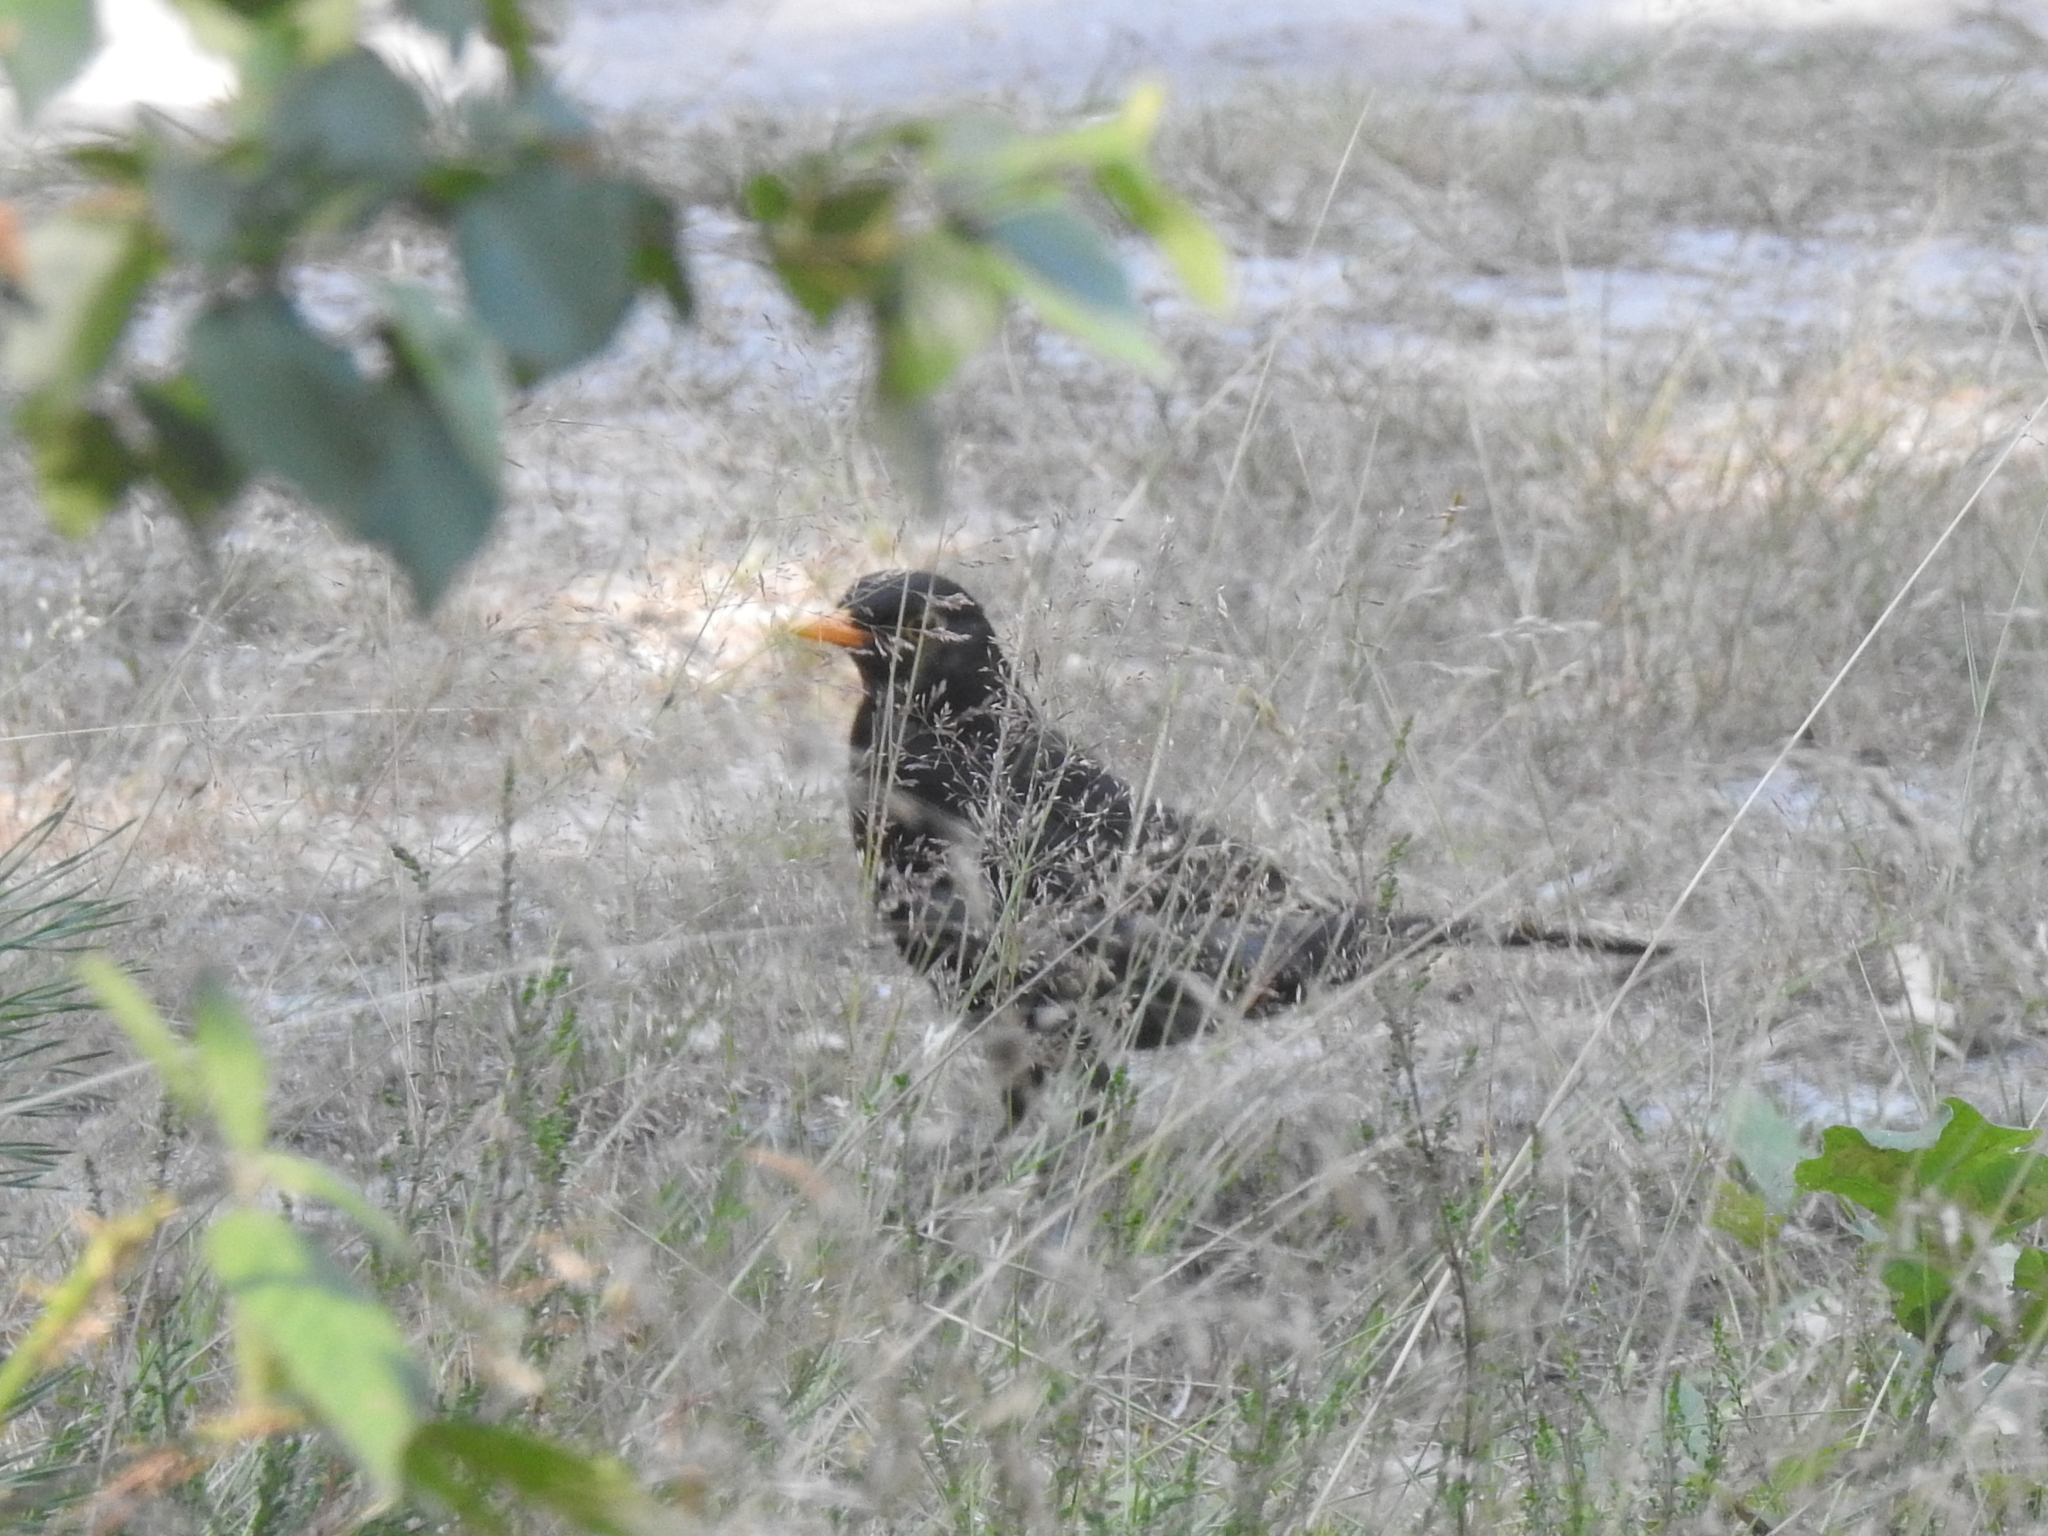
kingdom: Animalia
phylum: Chordata
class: Aves
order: Passeriformes
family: Turdidae
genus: Turdus
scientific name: Turdus merula
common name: Common blackbird
